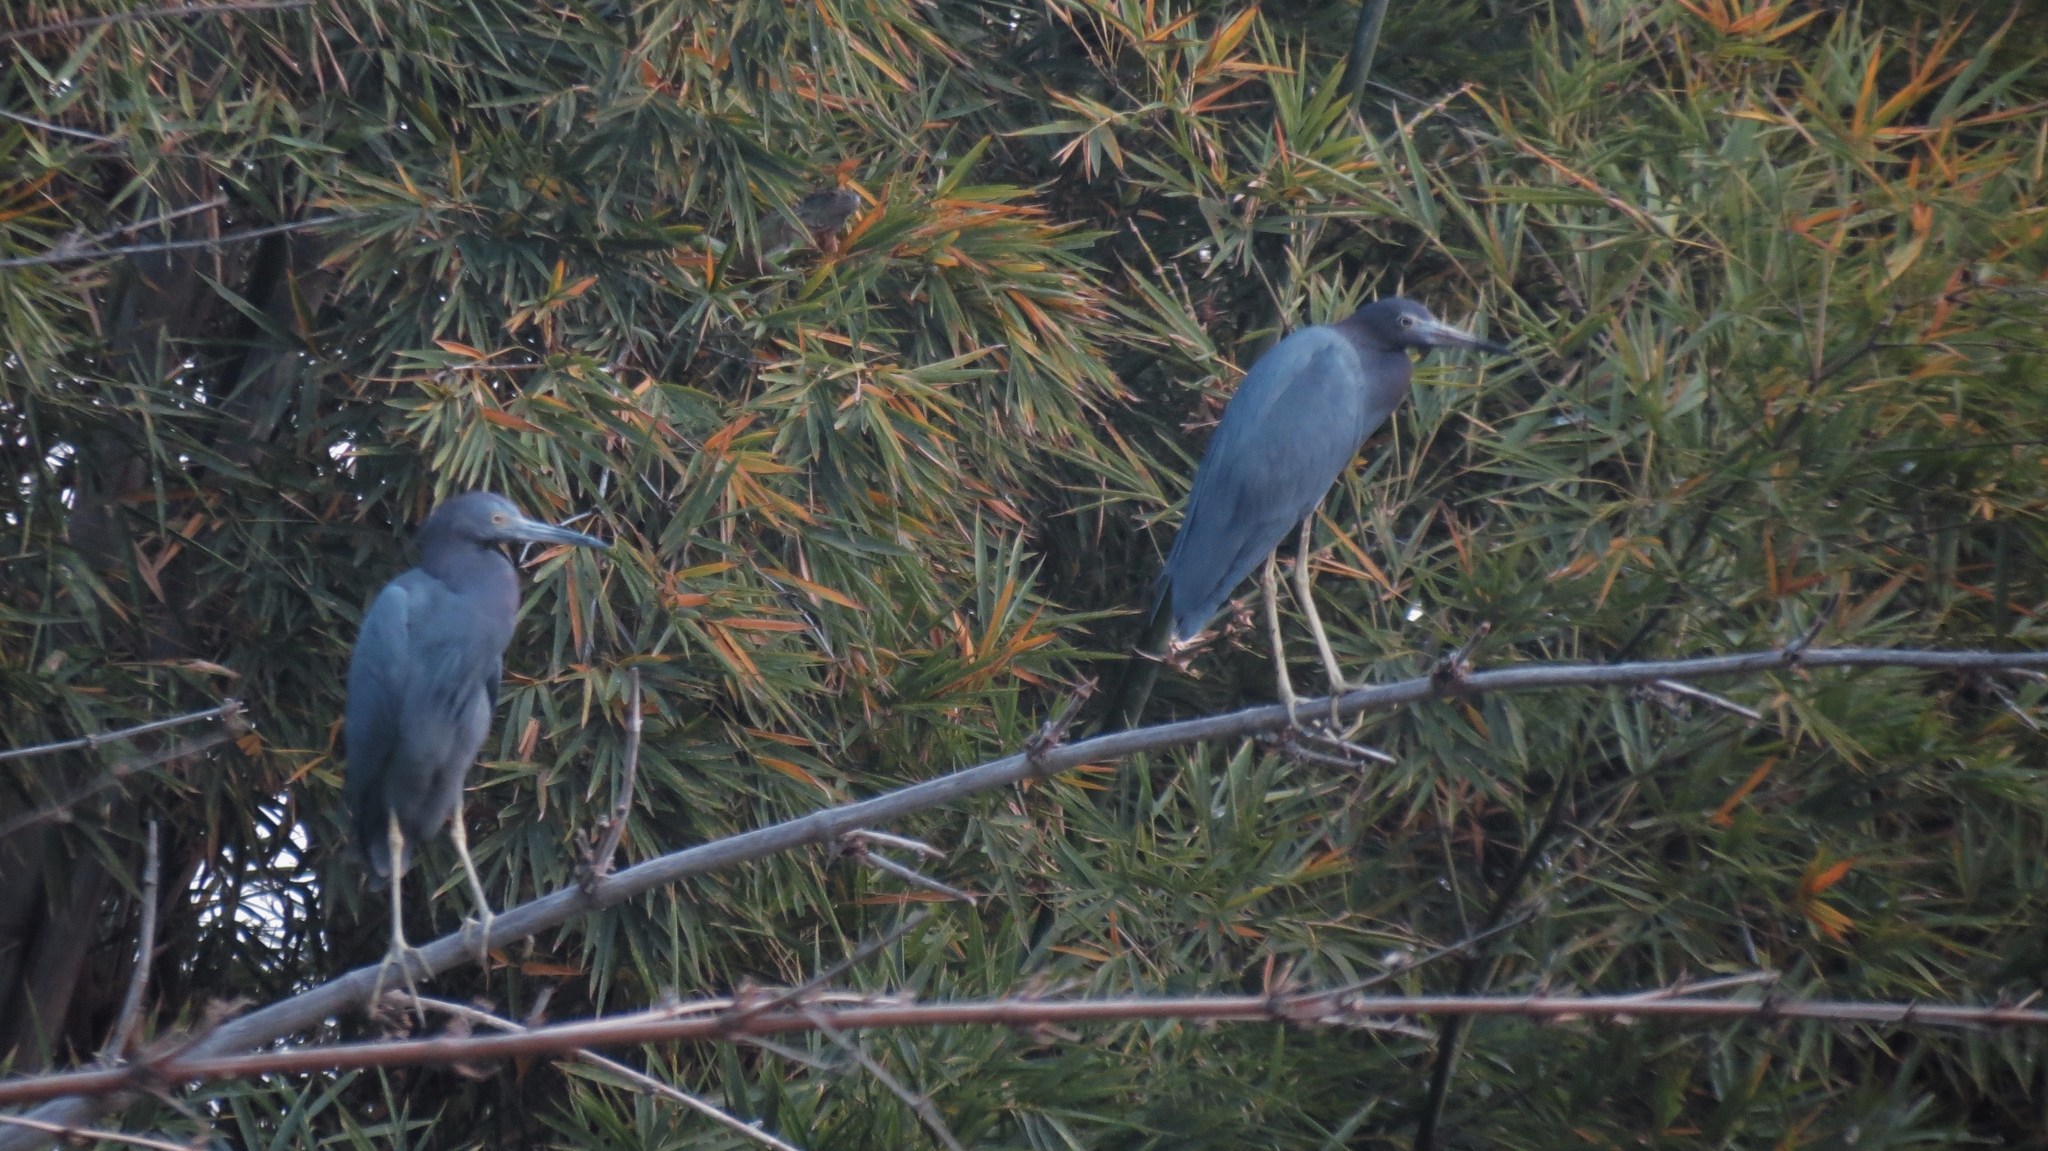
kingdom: Animalia
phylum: Chordata
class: Aves
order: Pelecaniformes
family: Ardeidae
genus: Egretta
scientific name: Egretta caerulea
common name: Little blue heron
